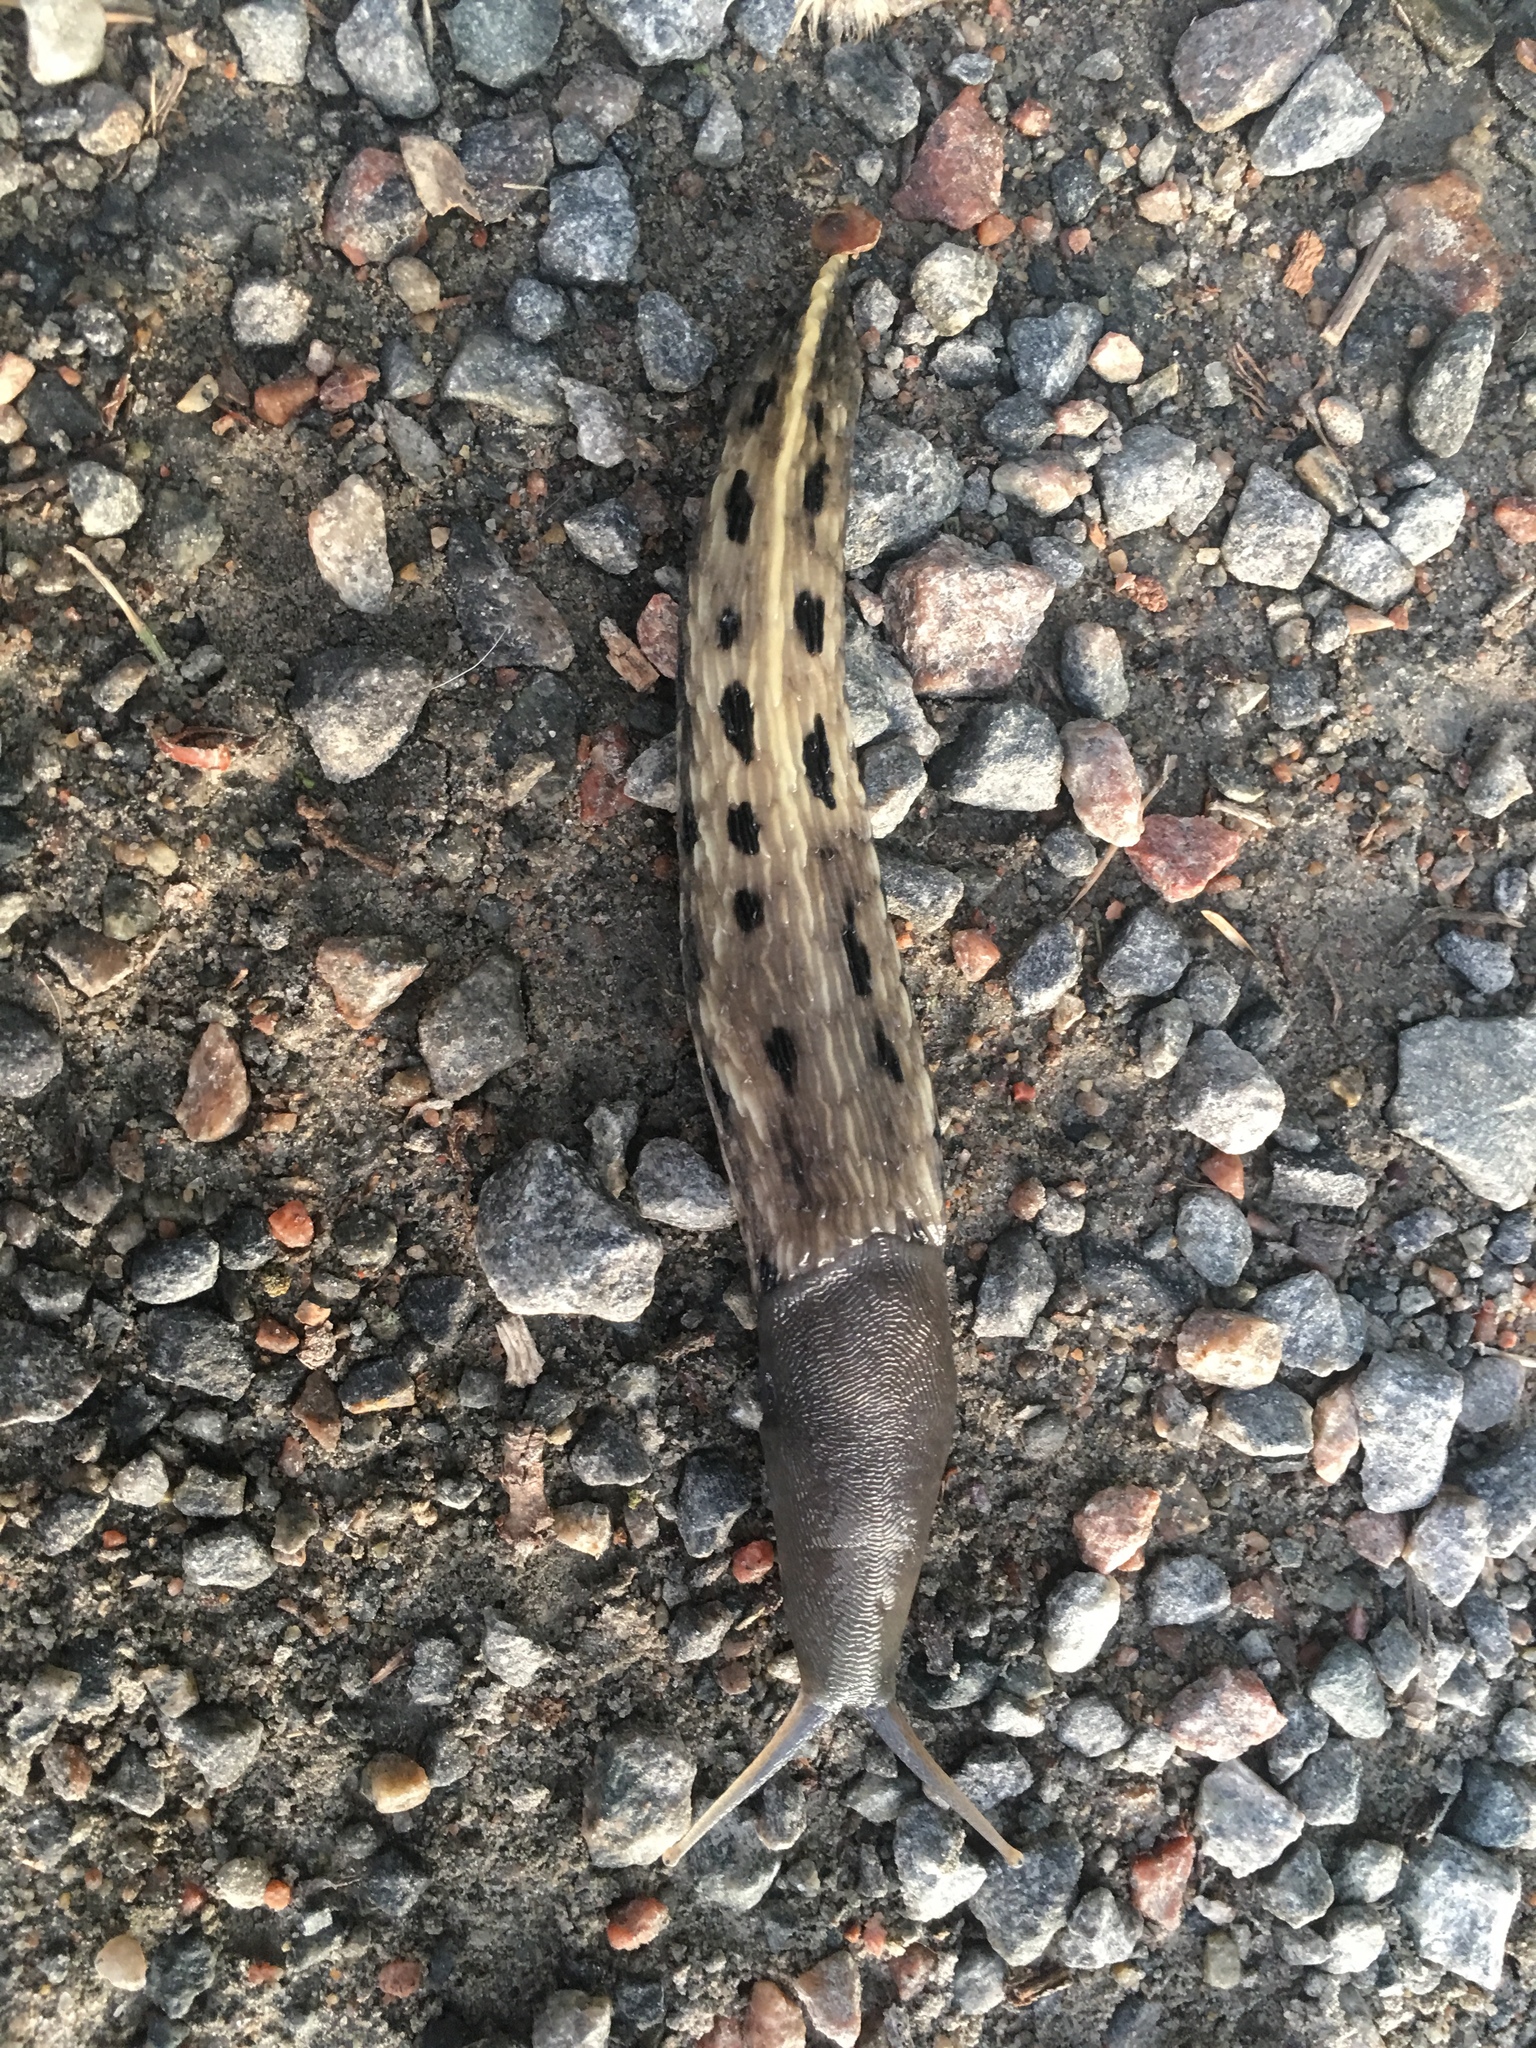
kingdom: Animalia
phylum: Mollusca
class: Gastropoda
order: Stylommatophora
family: Limacidae
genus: Limax
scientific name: Limax cinereoniger
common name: Ash-black slug
